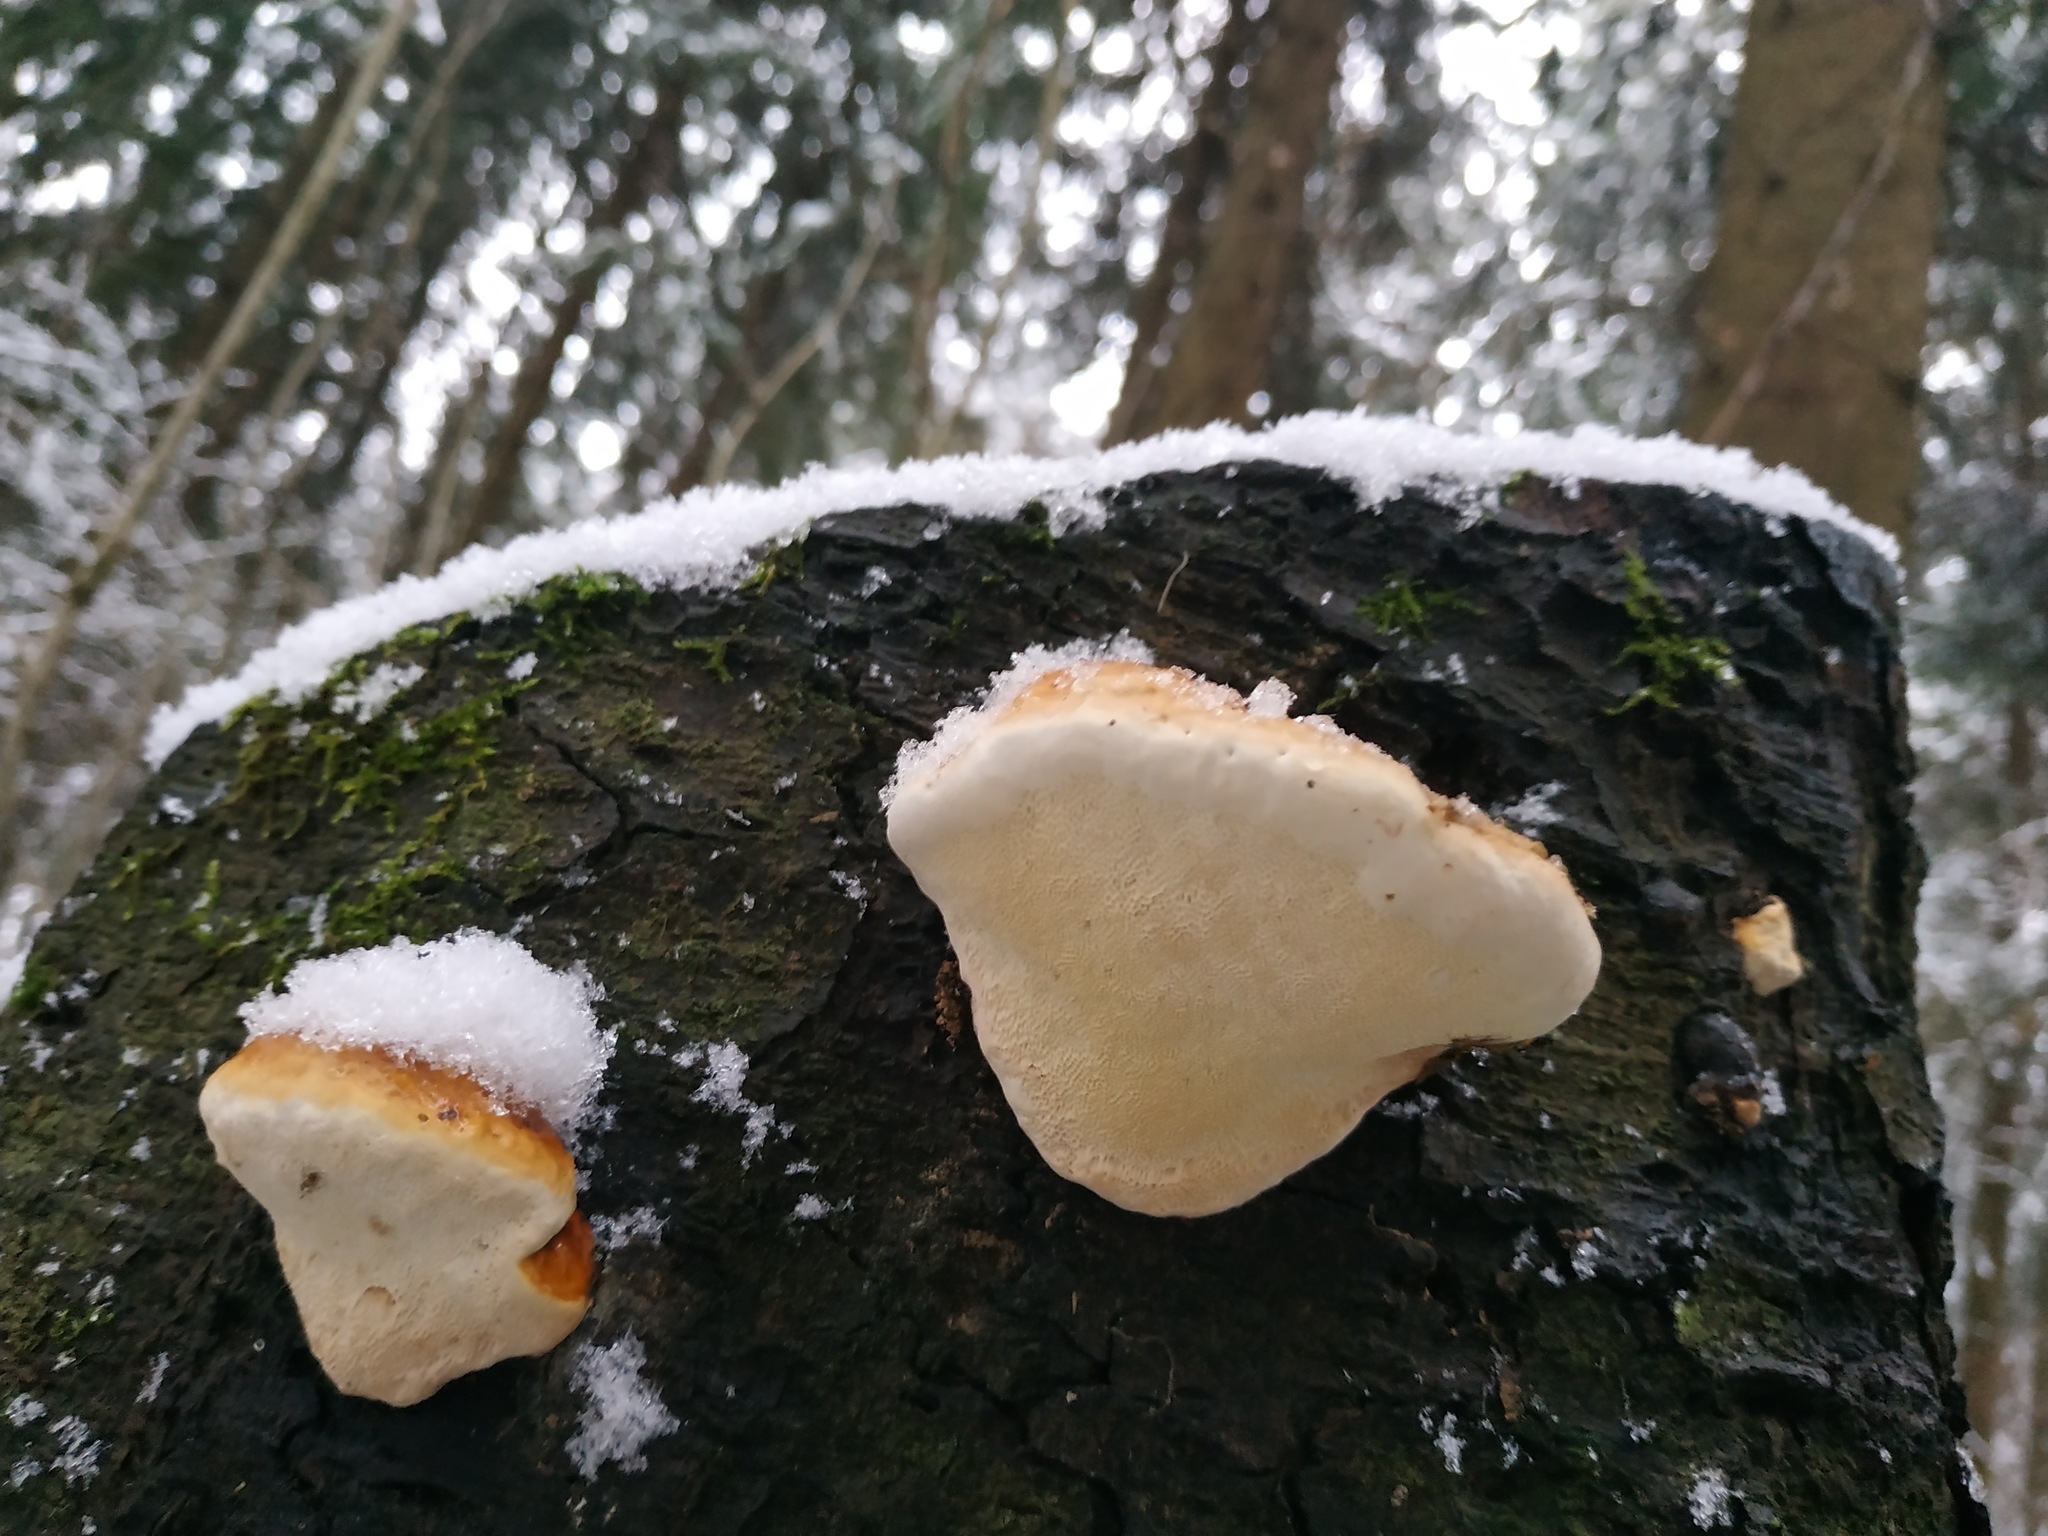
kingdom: Fungi
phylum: Basidiomycota
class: Agaricomycetes
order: Polyporales
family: Fomitopsidaceae
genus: Fomitopsis
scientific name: Fomitopsis pinicola
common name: Red-belted bracket
